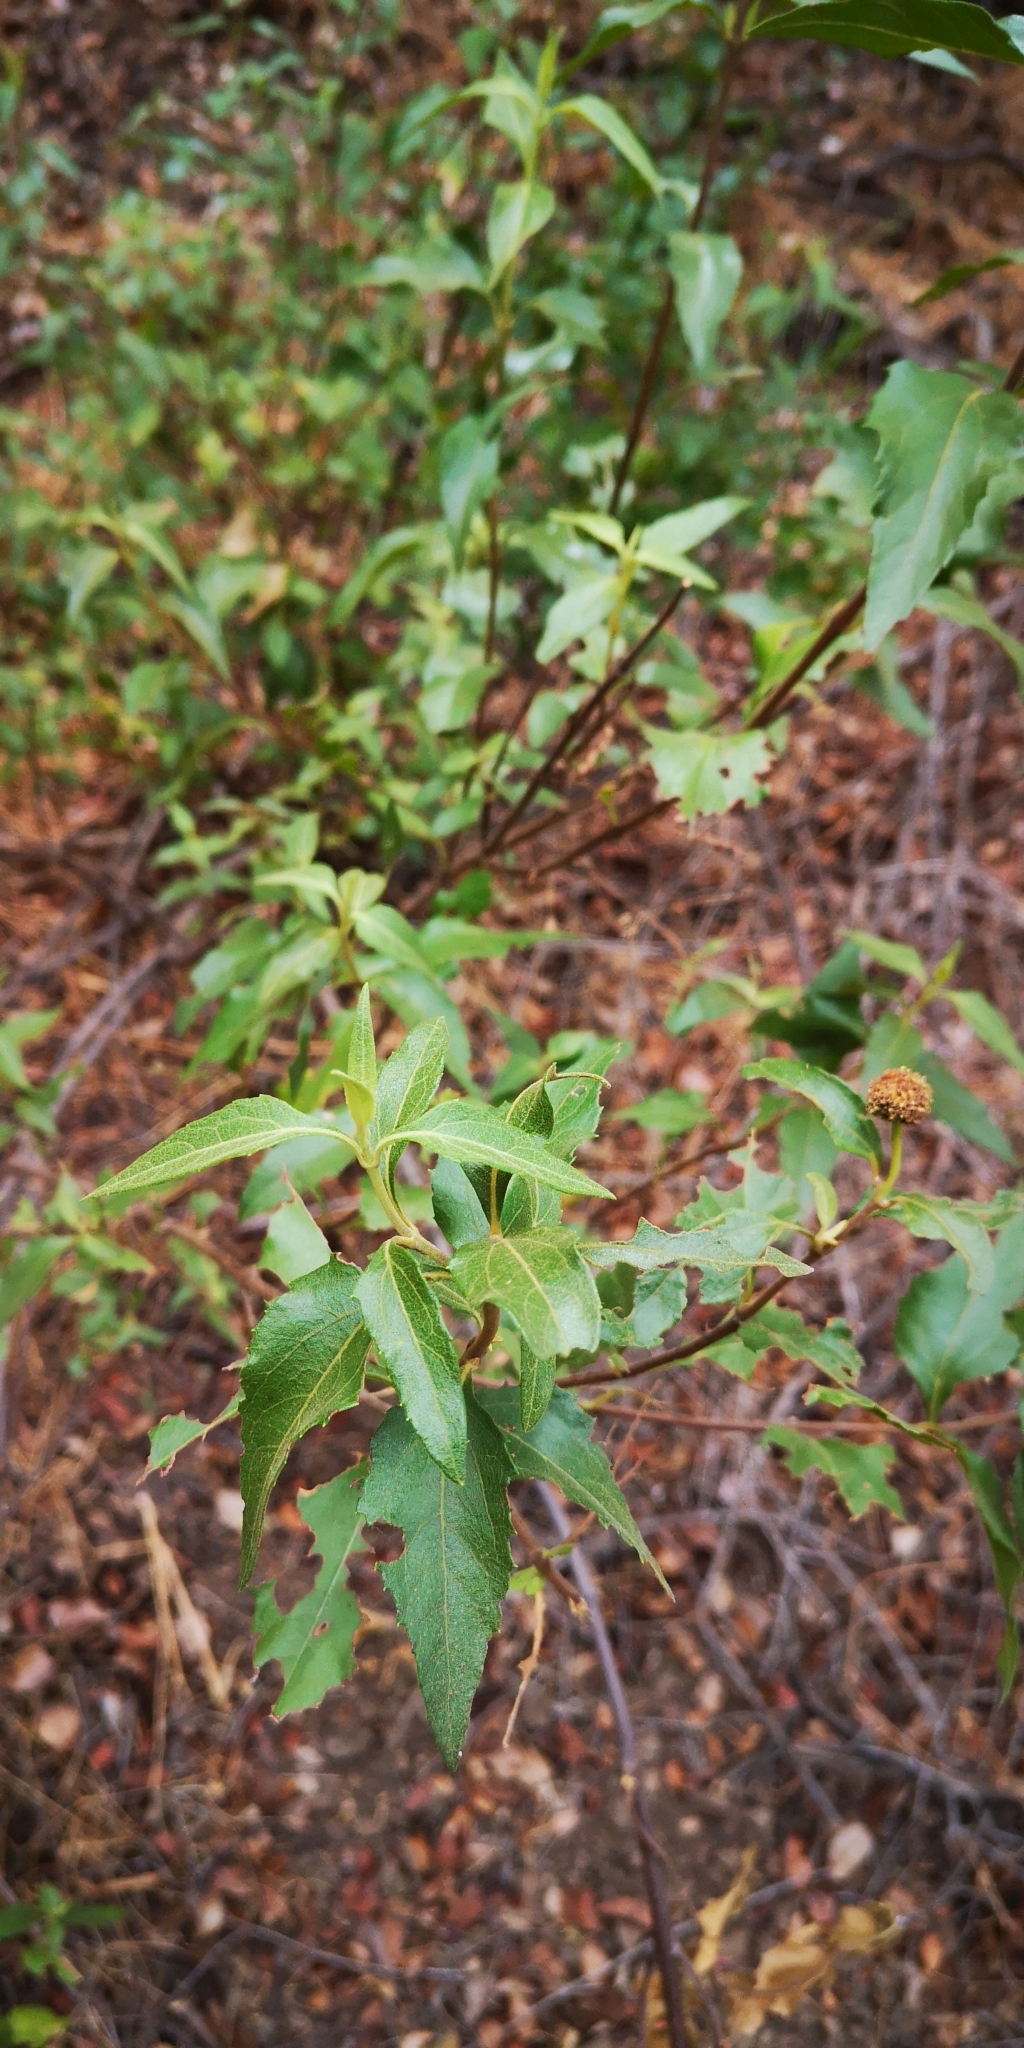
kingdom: Plantae
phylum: Tracheophyta
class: Magnoliopsida
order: Asterales
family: Asteraceae
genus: Podanthus
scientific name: Podanthus mitiqui
